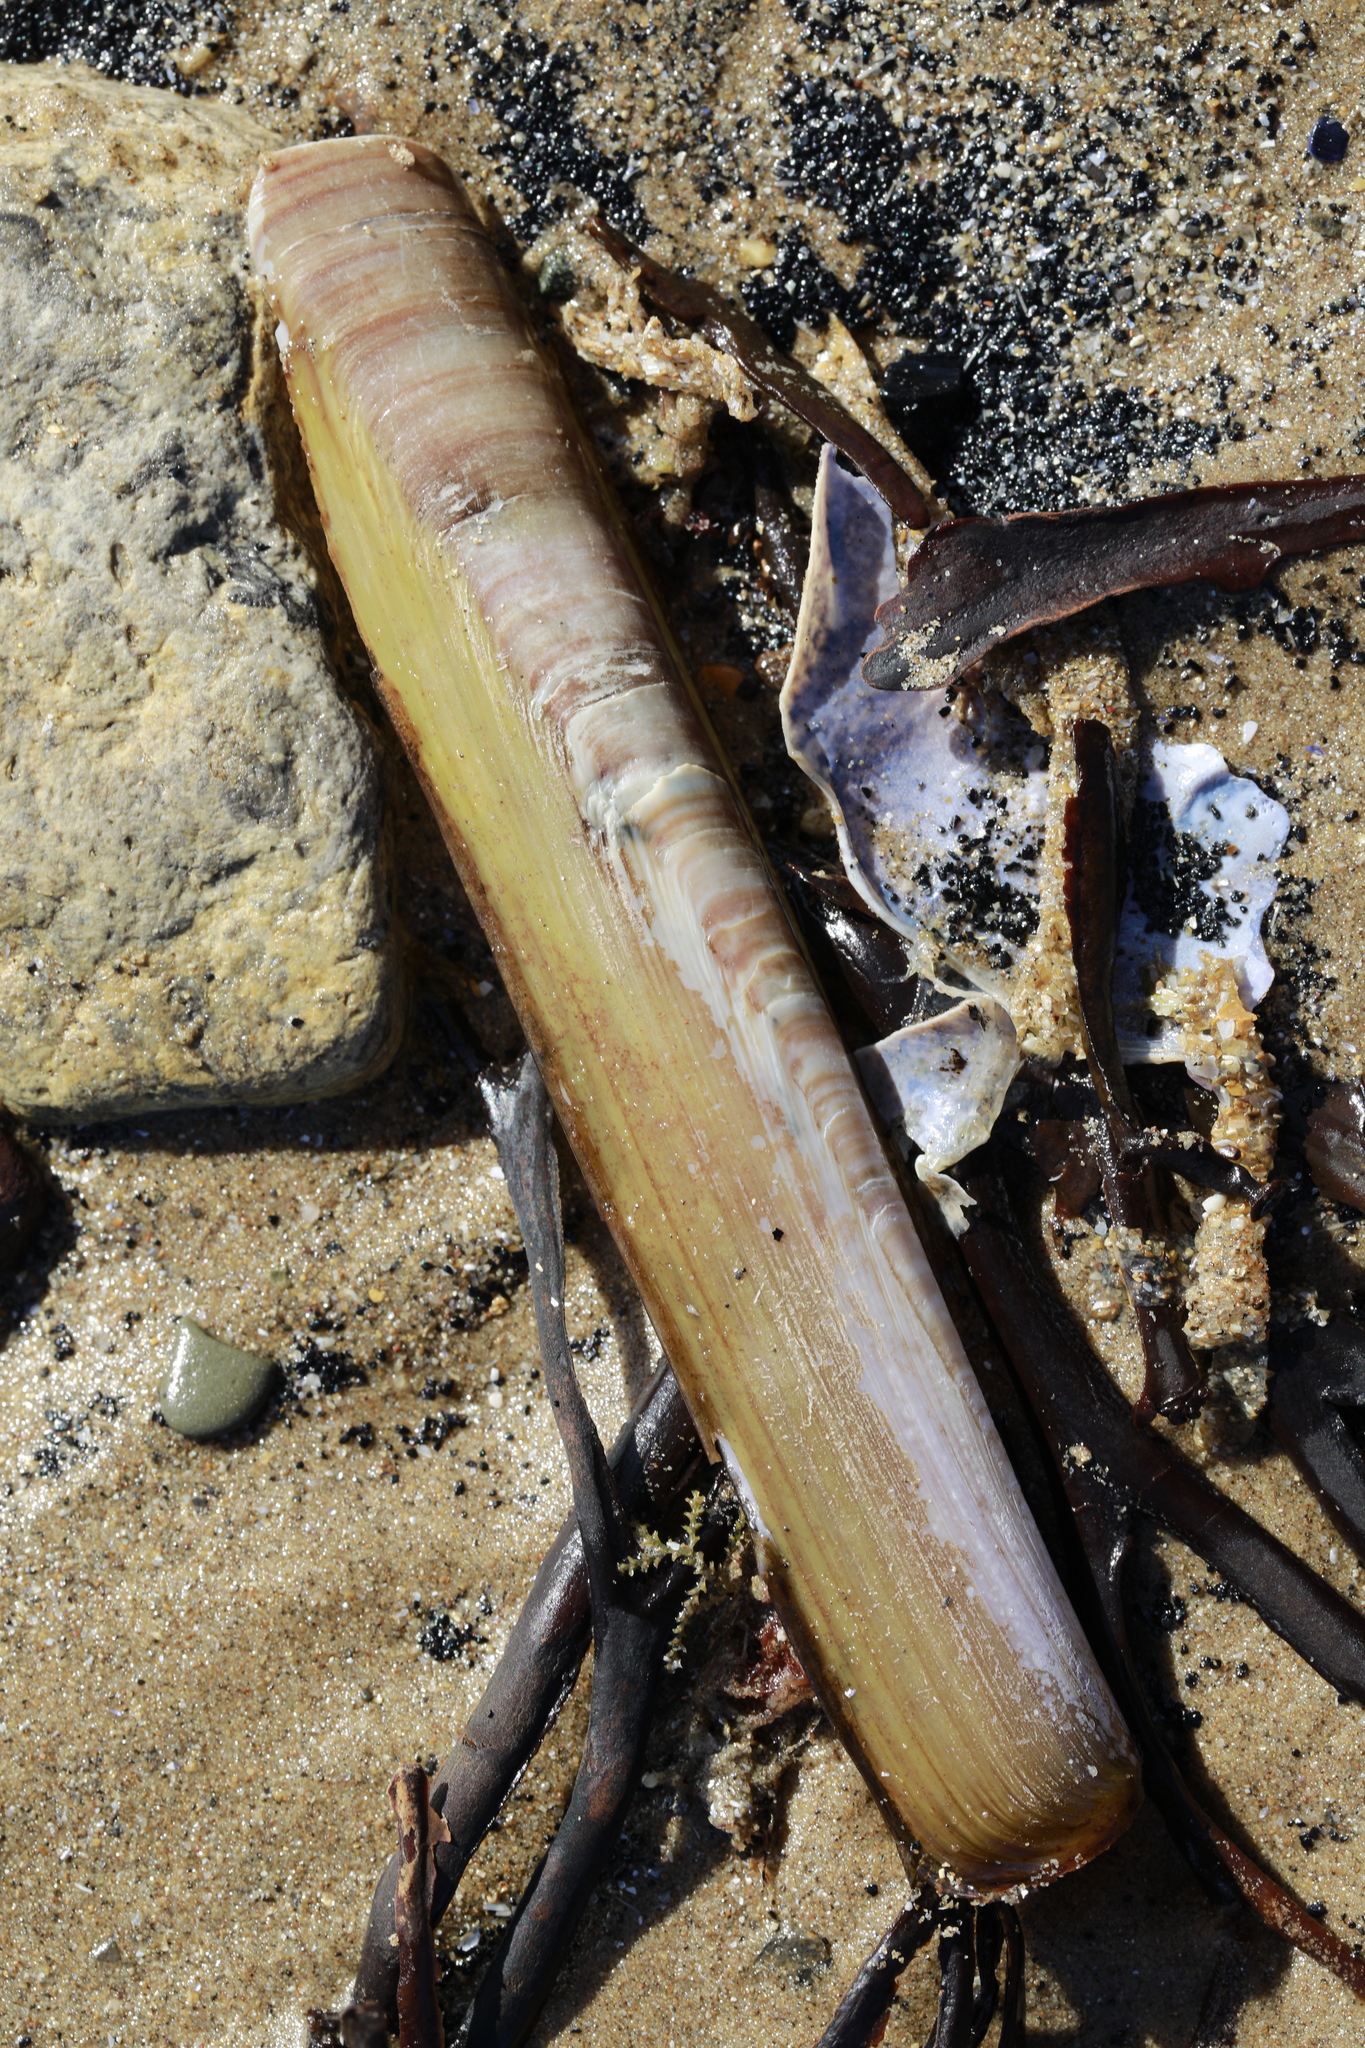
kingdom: Animalia
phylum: Mollusca
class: Bivalvia
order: Adapedonta
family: Pharidae
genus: Ensis
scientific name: Ensis siliqua
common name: Pod razor shell
